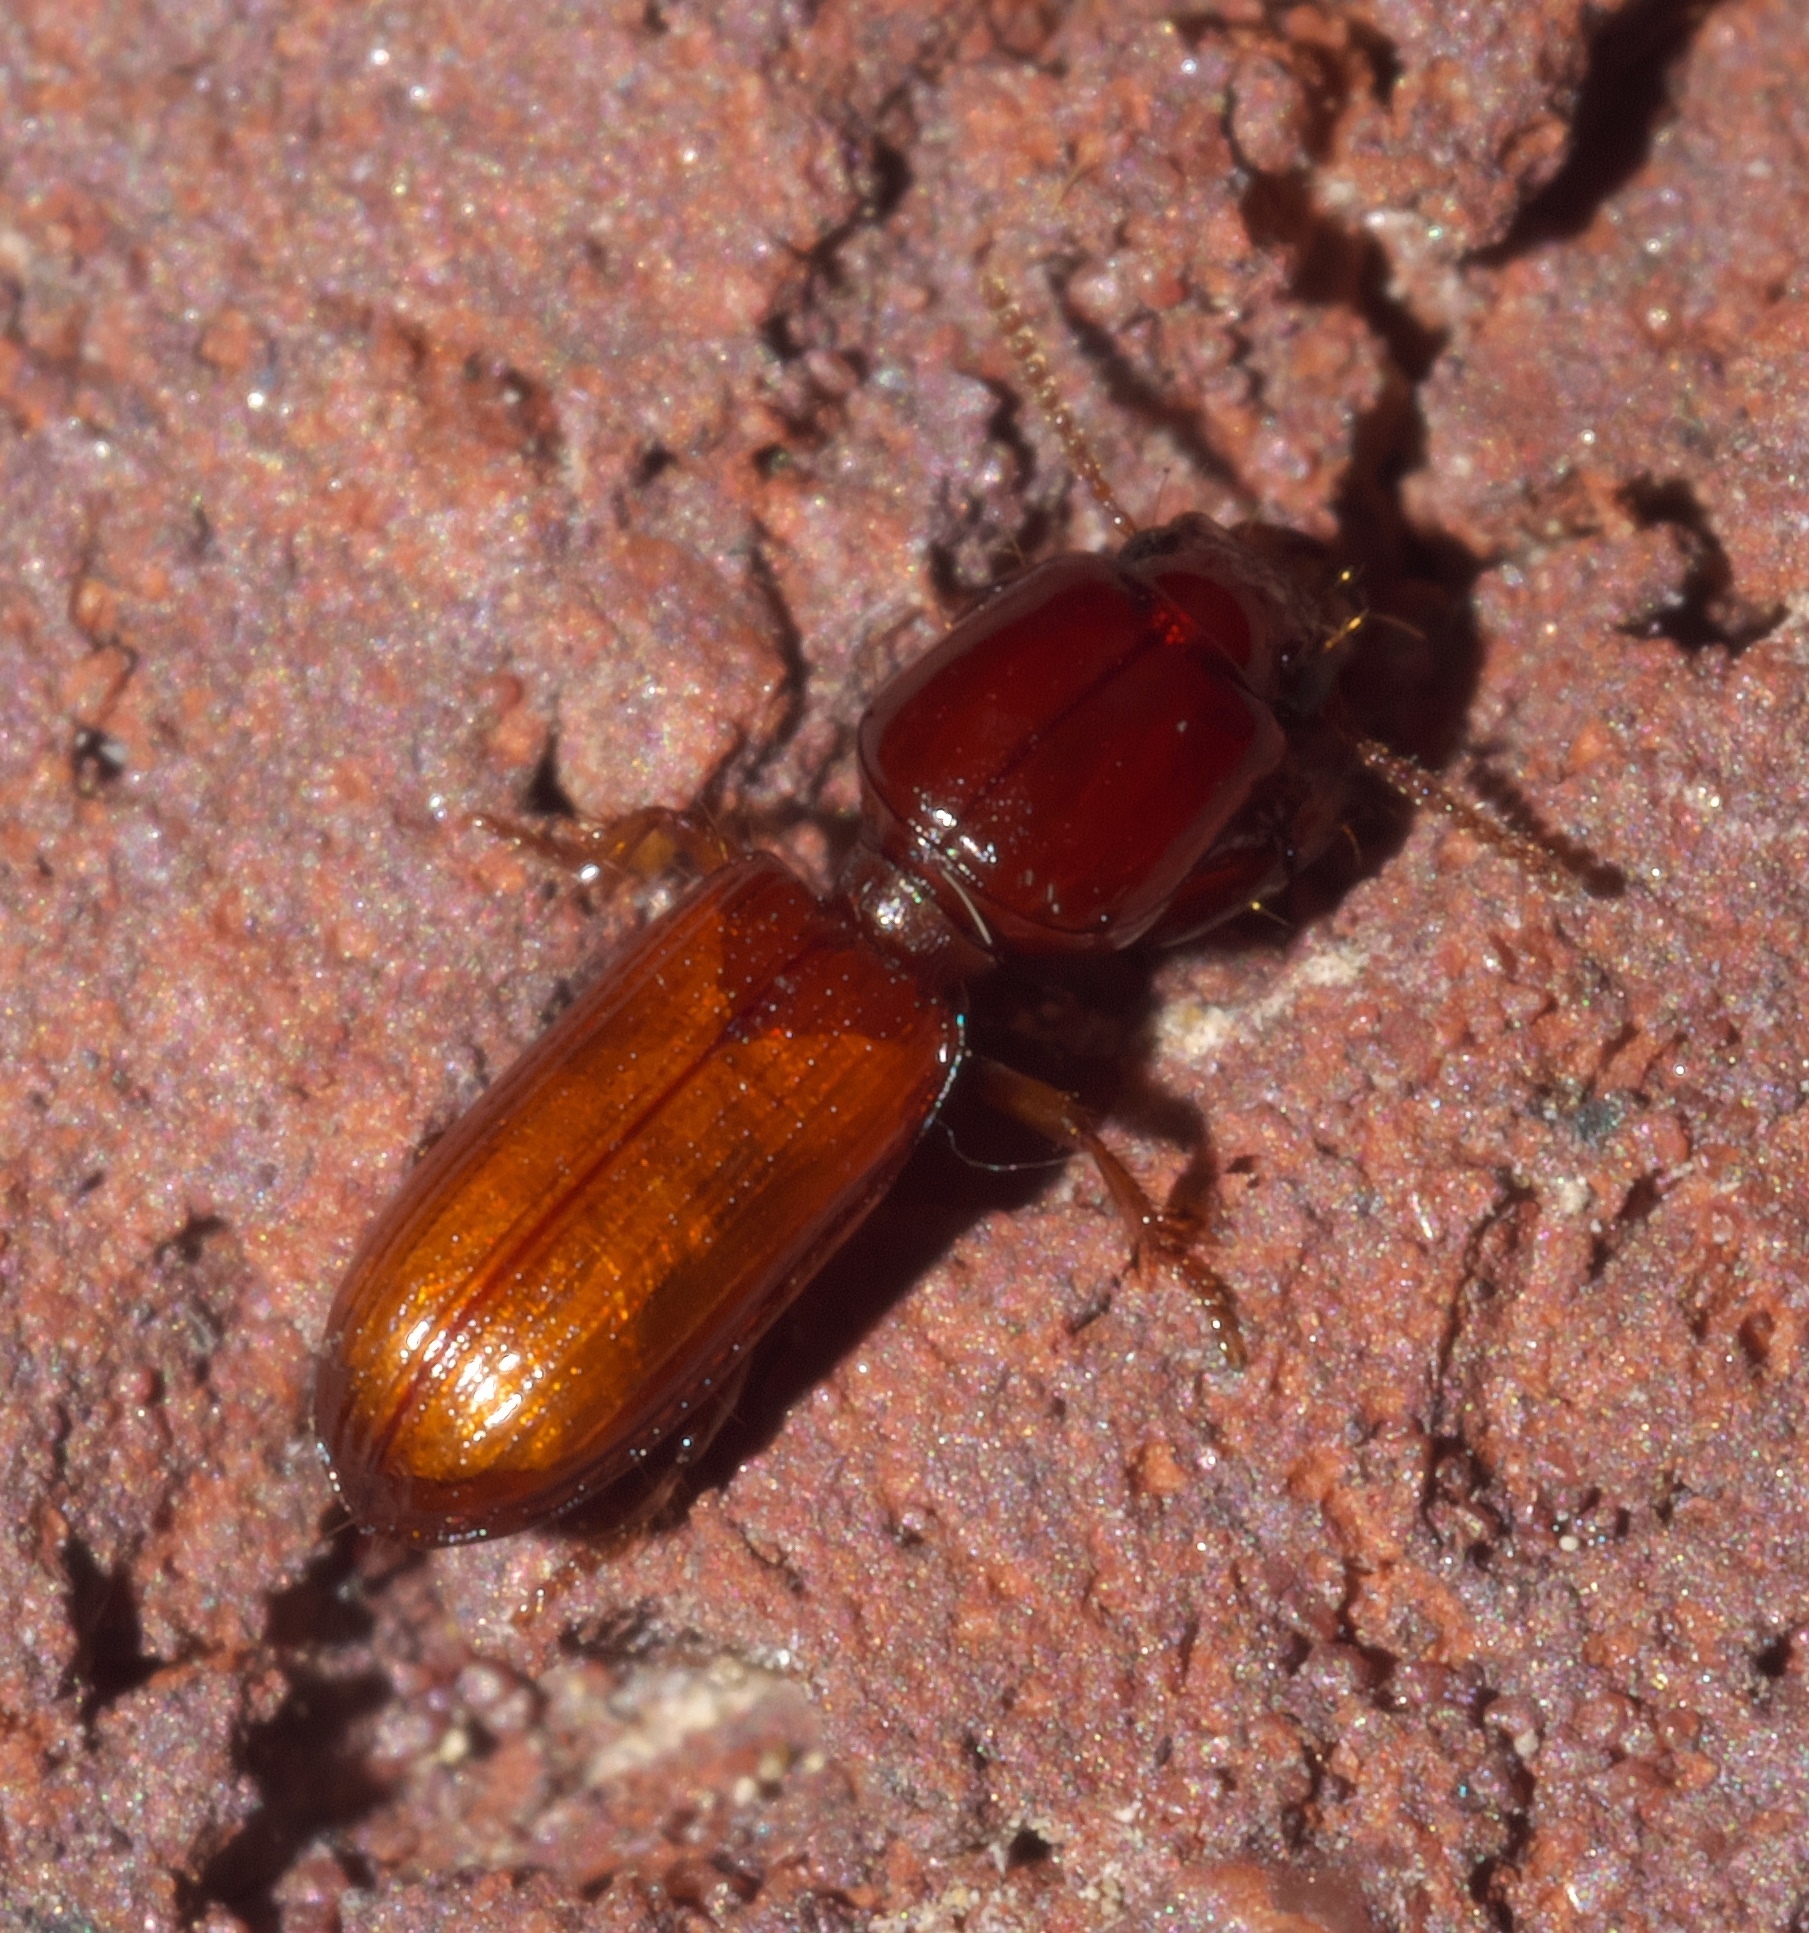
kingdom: Animalia
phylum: Arthropoda
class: Insecta
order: Coleoptera
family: Carabidae
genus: Clivina
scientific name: Clivina ferrea
